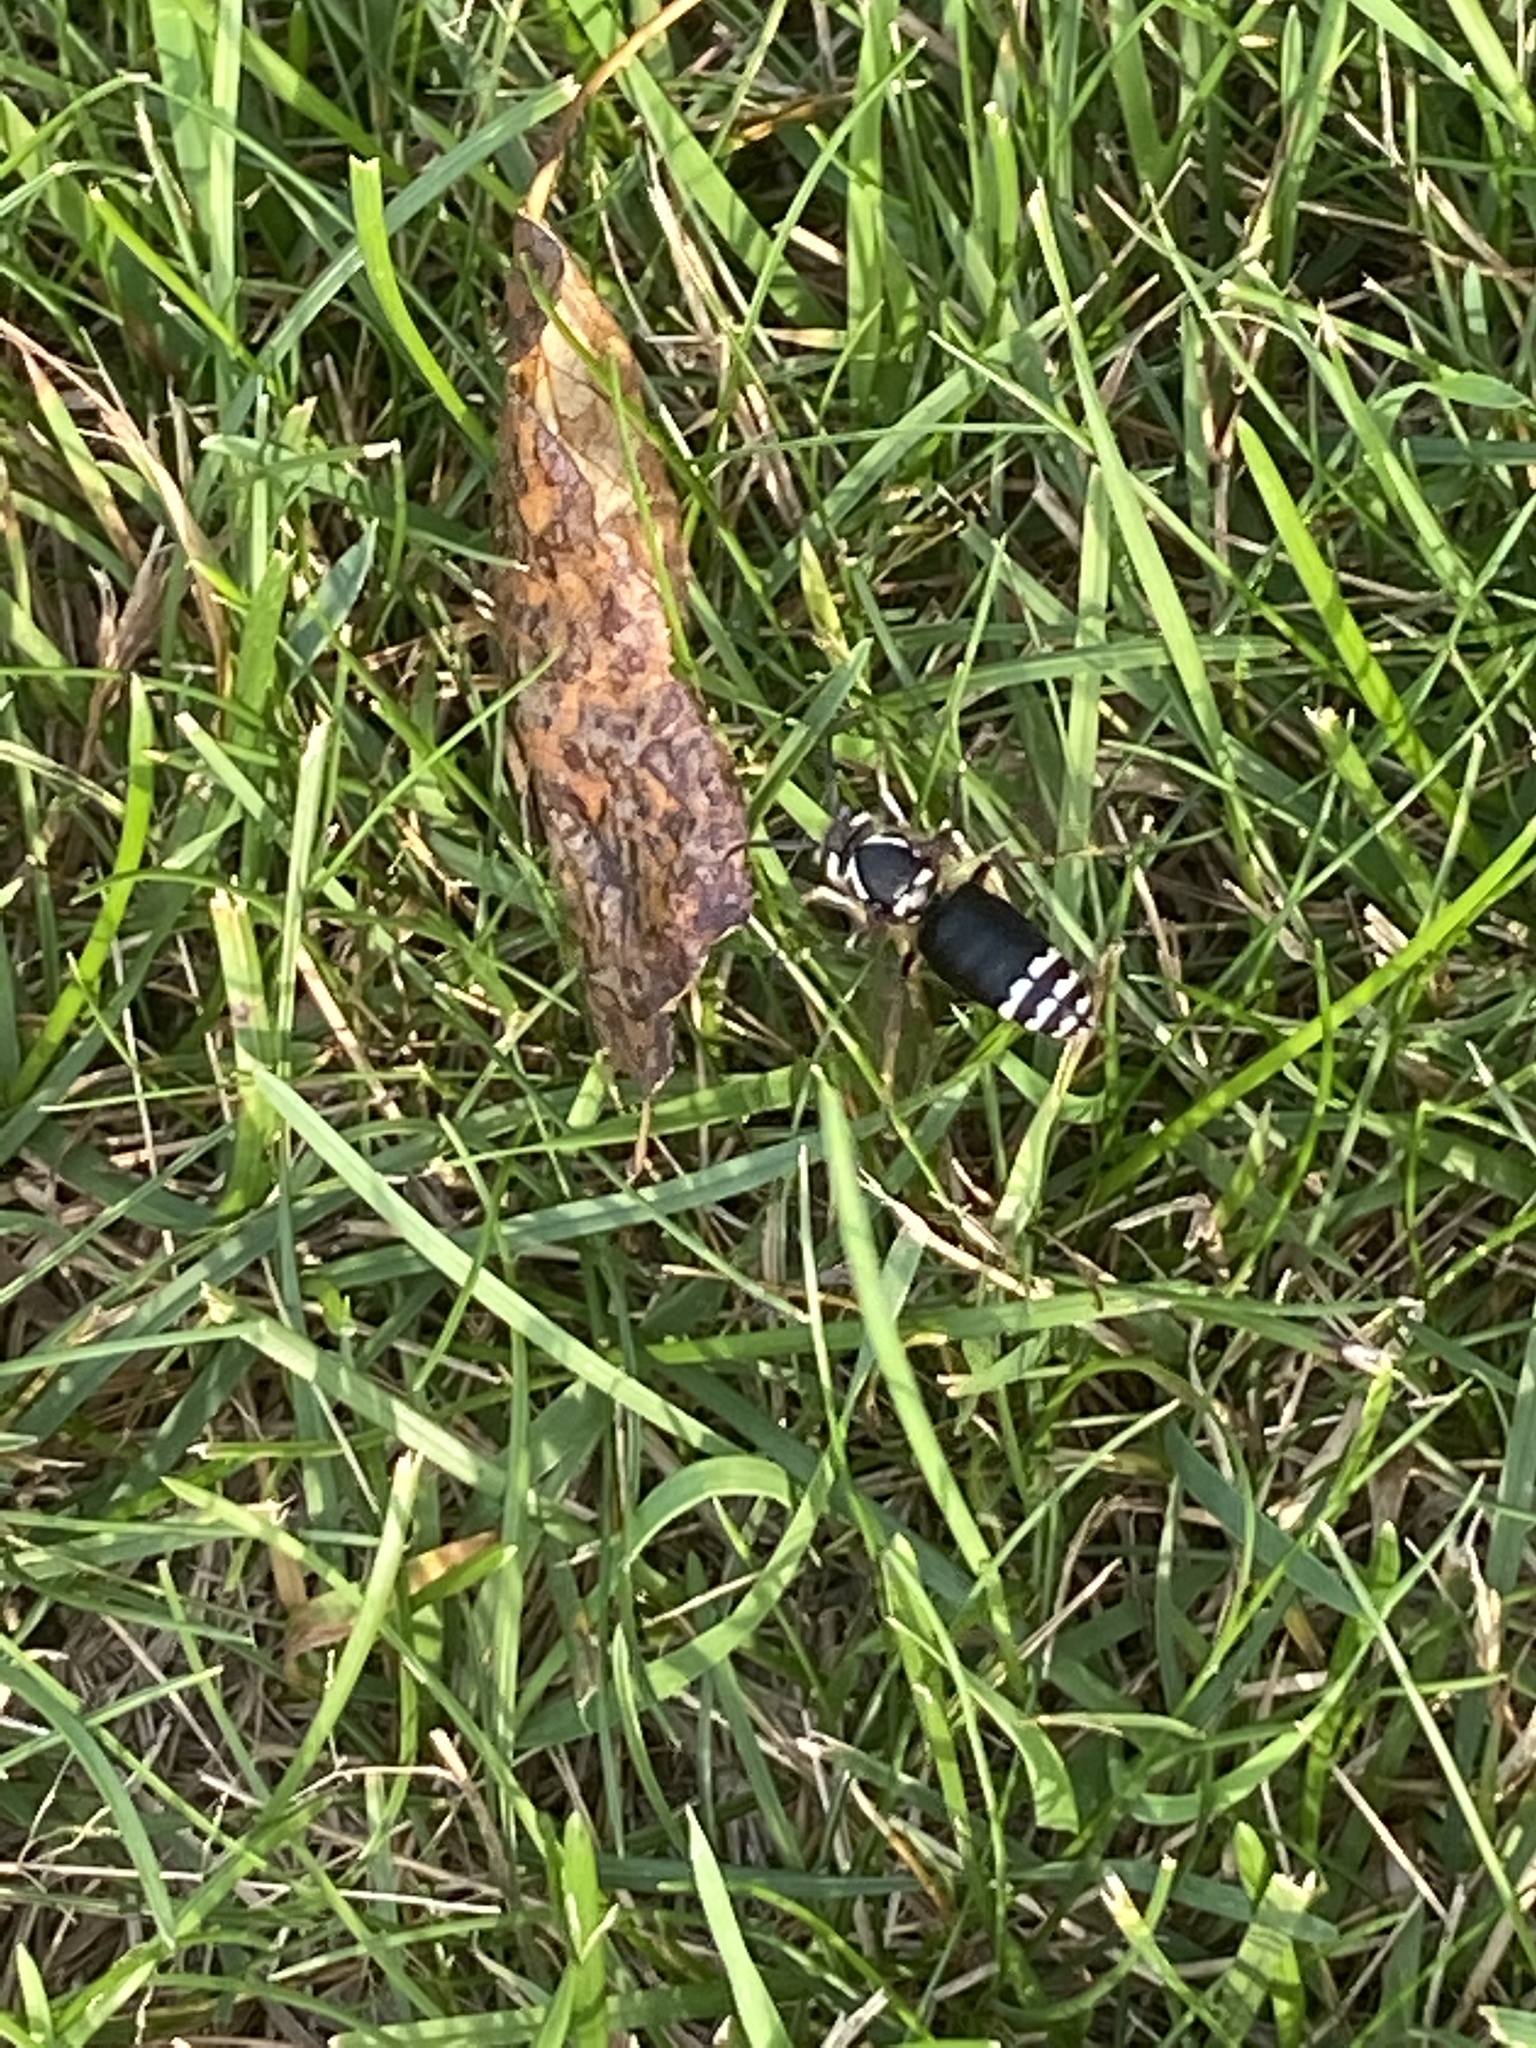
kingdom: Animalia
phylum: Arthropoda
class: Insecta
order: Hymenoptera
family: Vespidae
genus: Dolichovespula
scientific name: Dolichovespula maculata
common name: Bald-faced hornet
